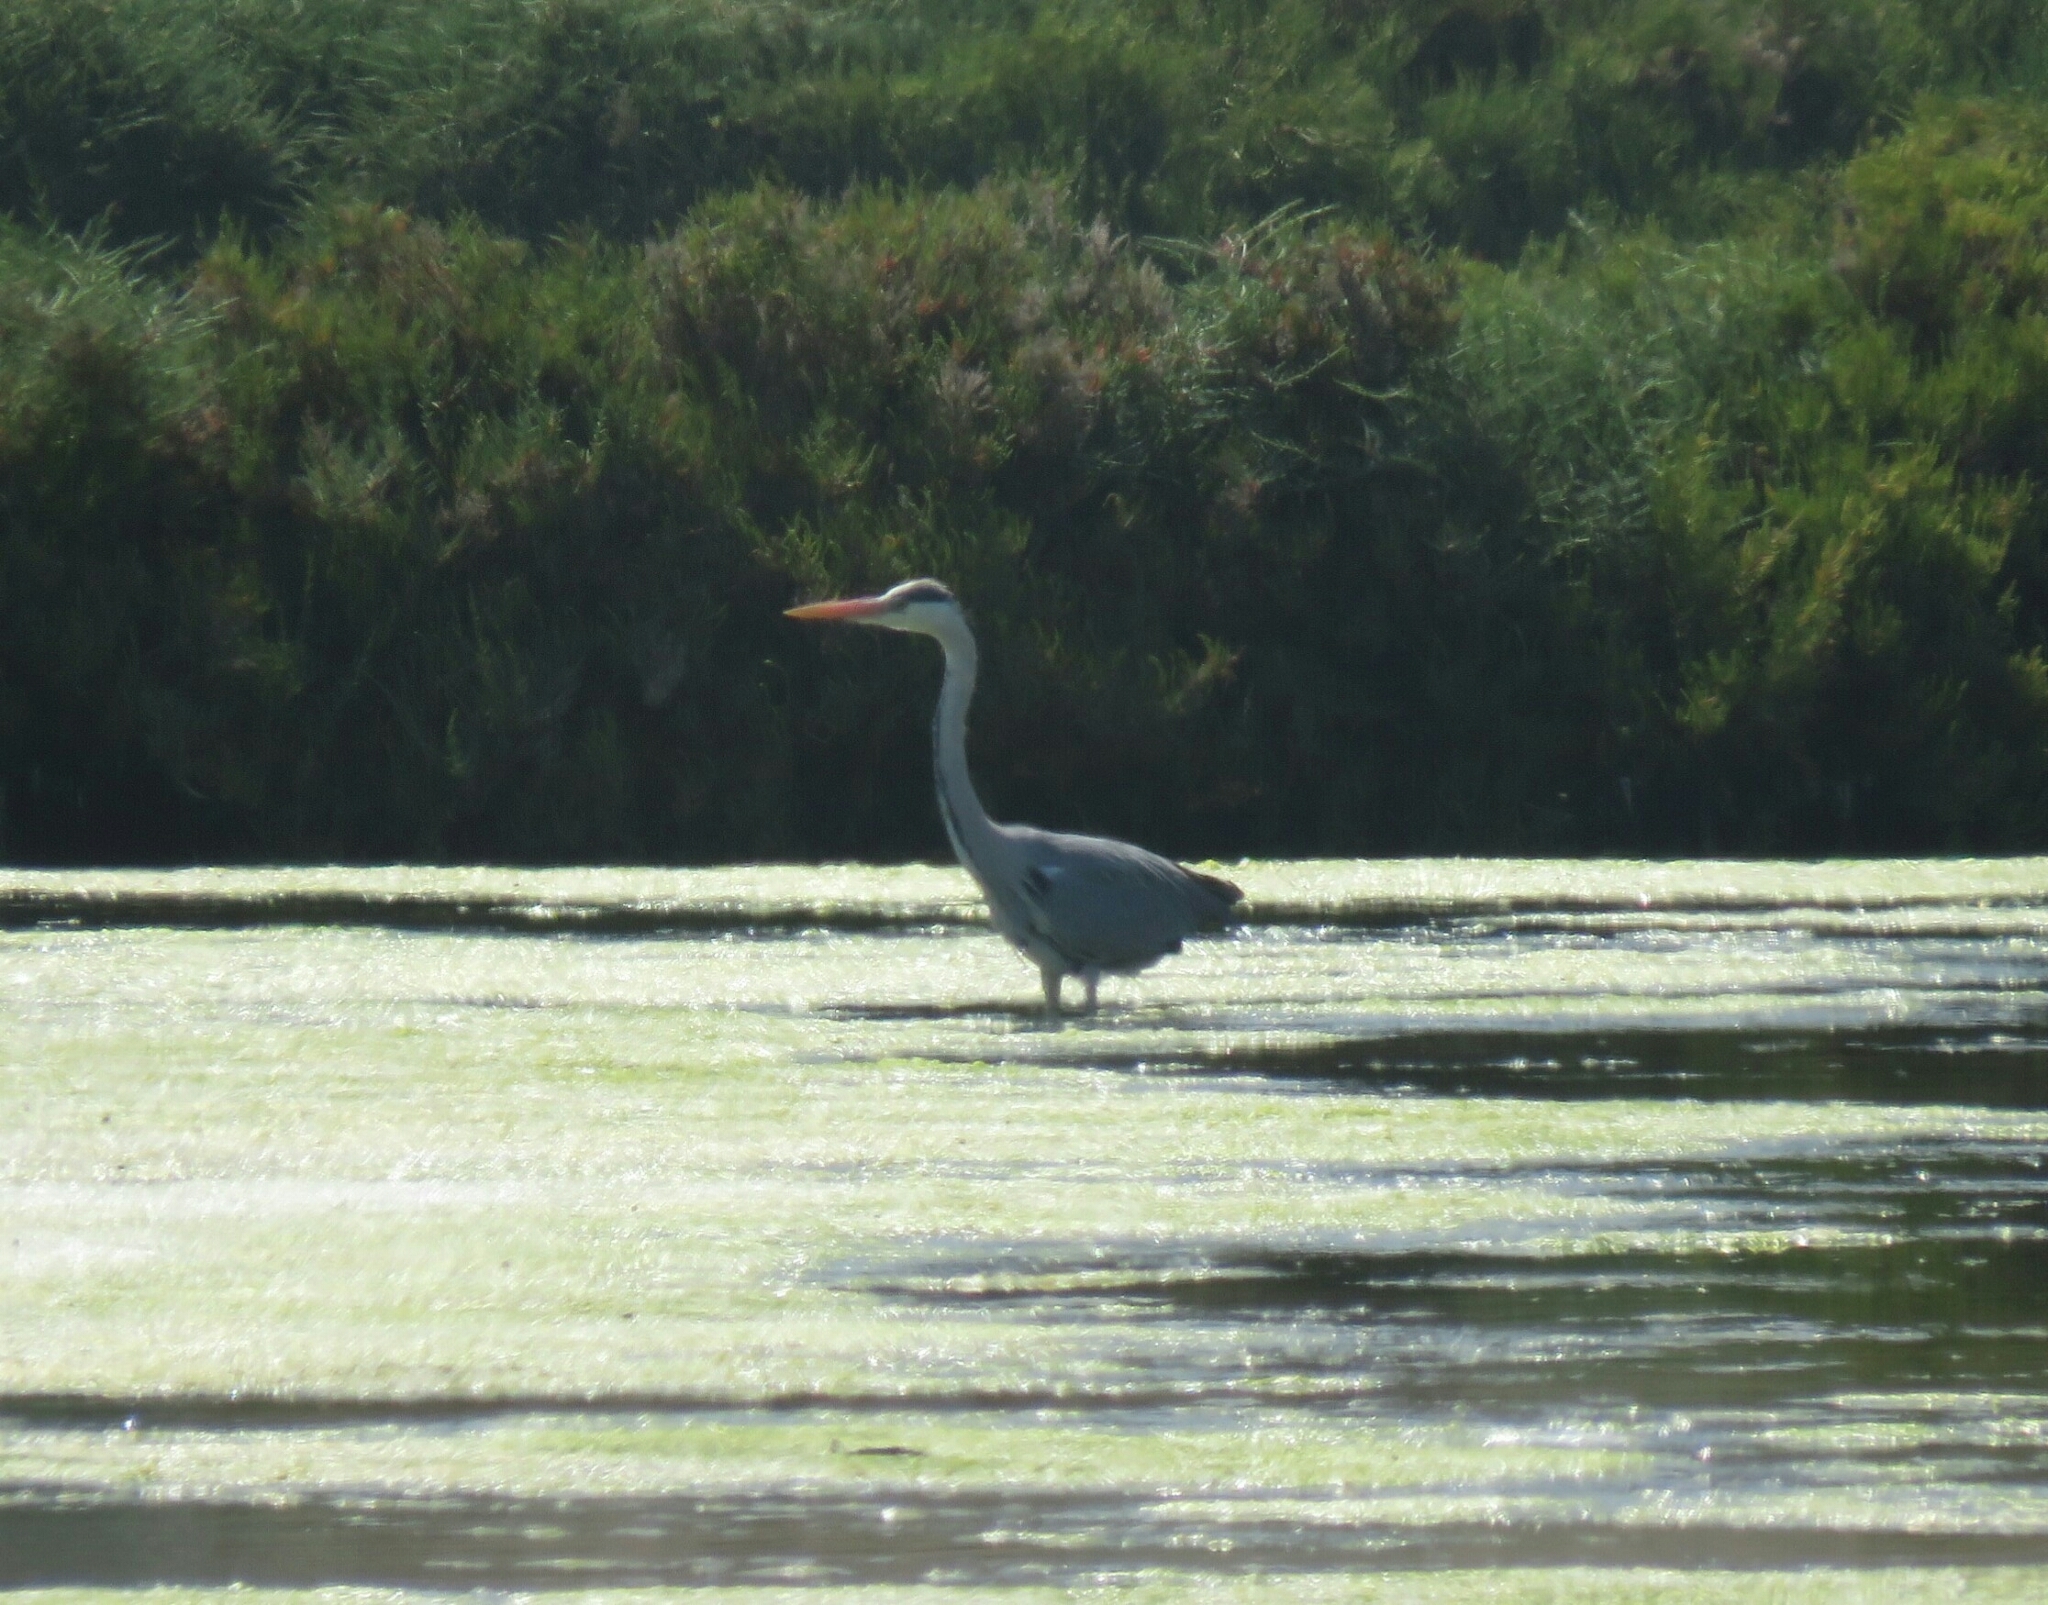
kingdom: Animalia
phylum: Chordata
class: Aves
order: Pelecaniformes
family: Ardeidae
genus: Ardea
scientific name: Ardea cinerea
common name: Grey heron
